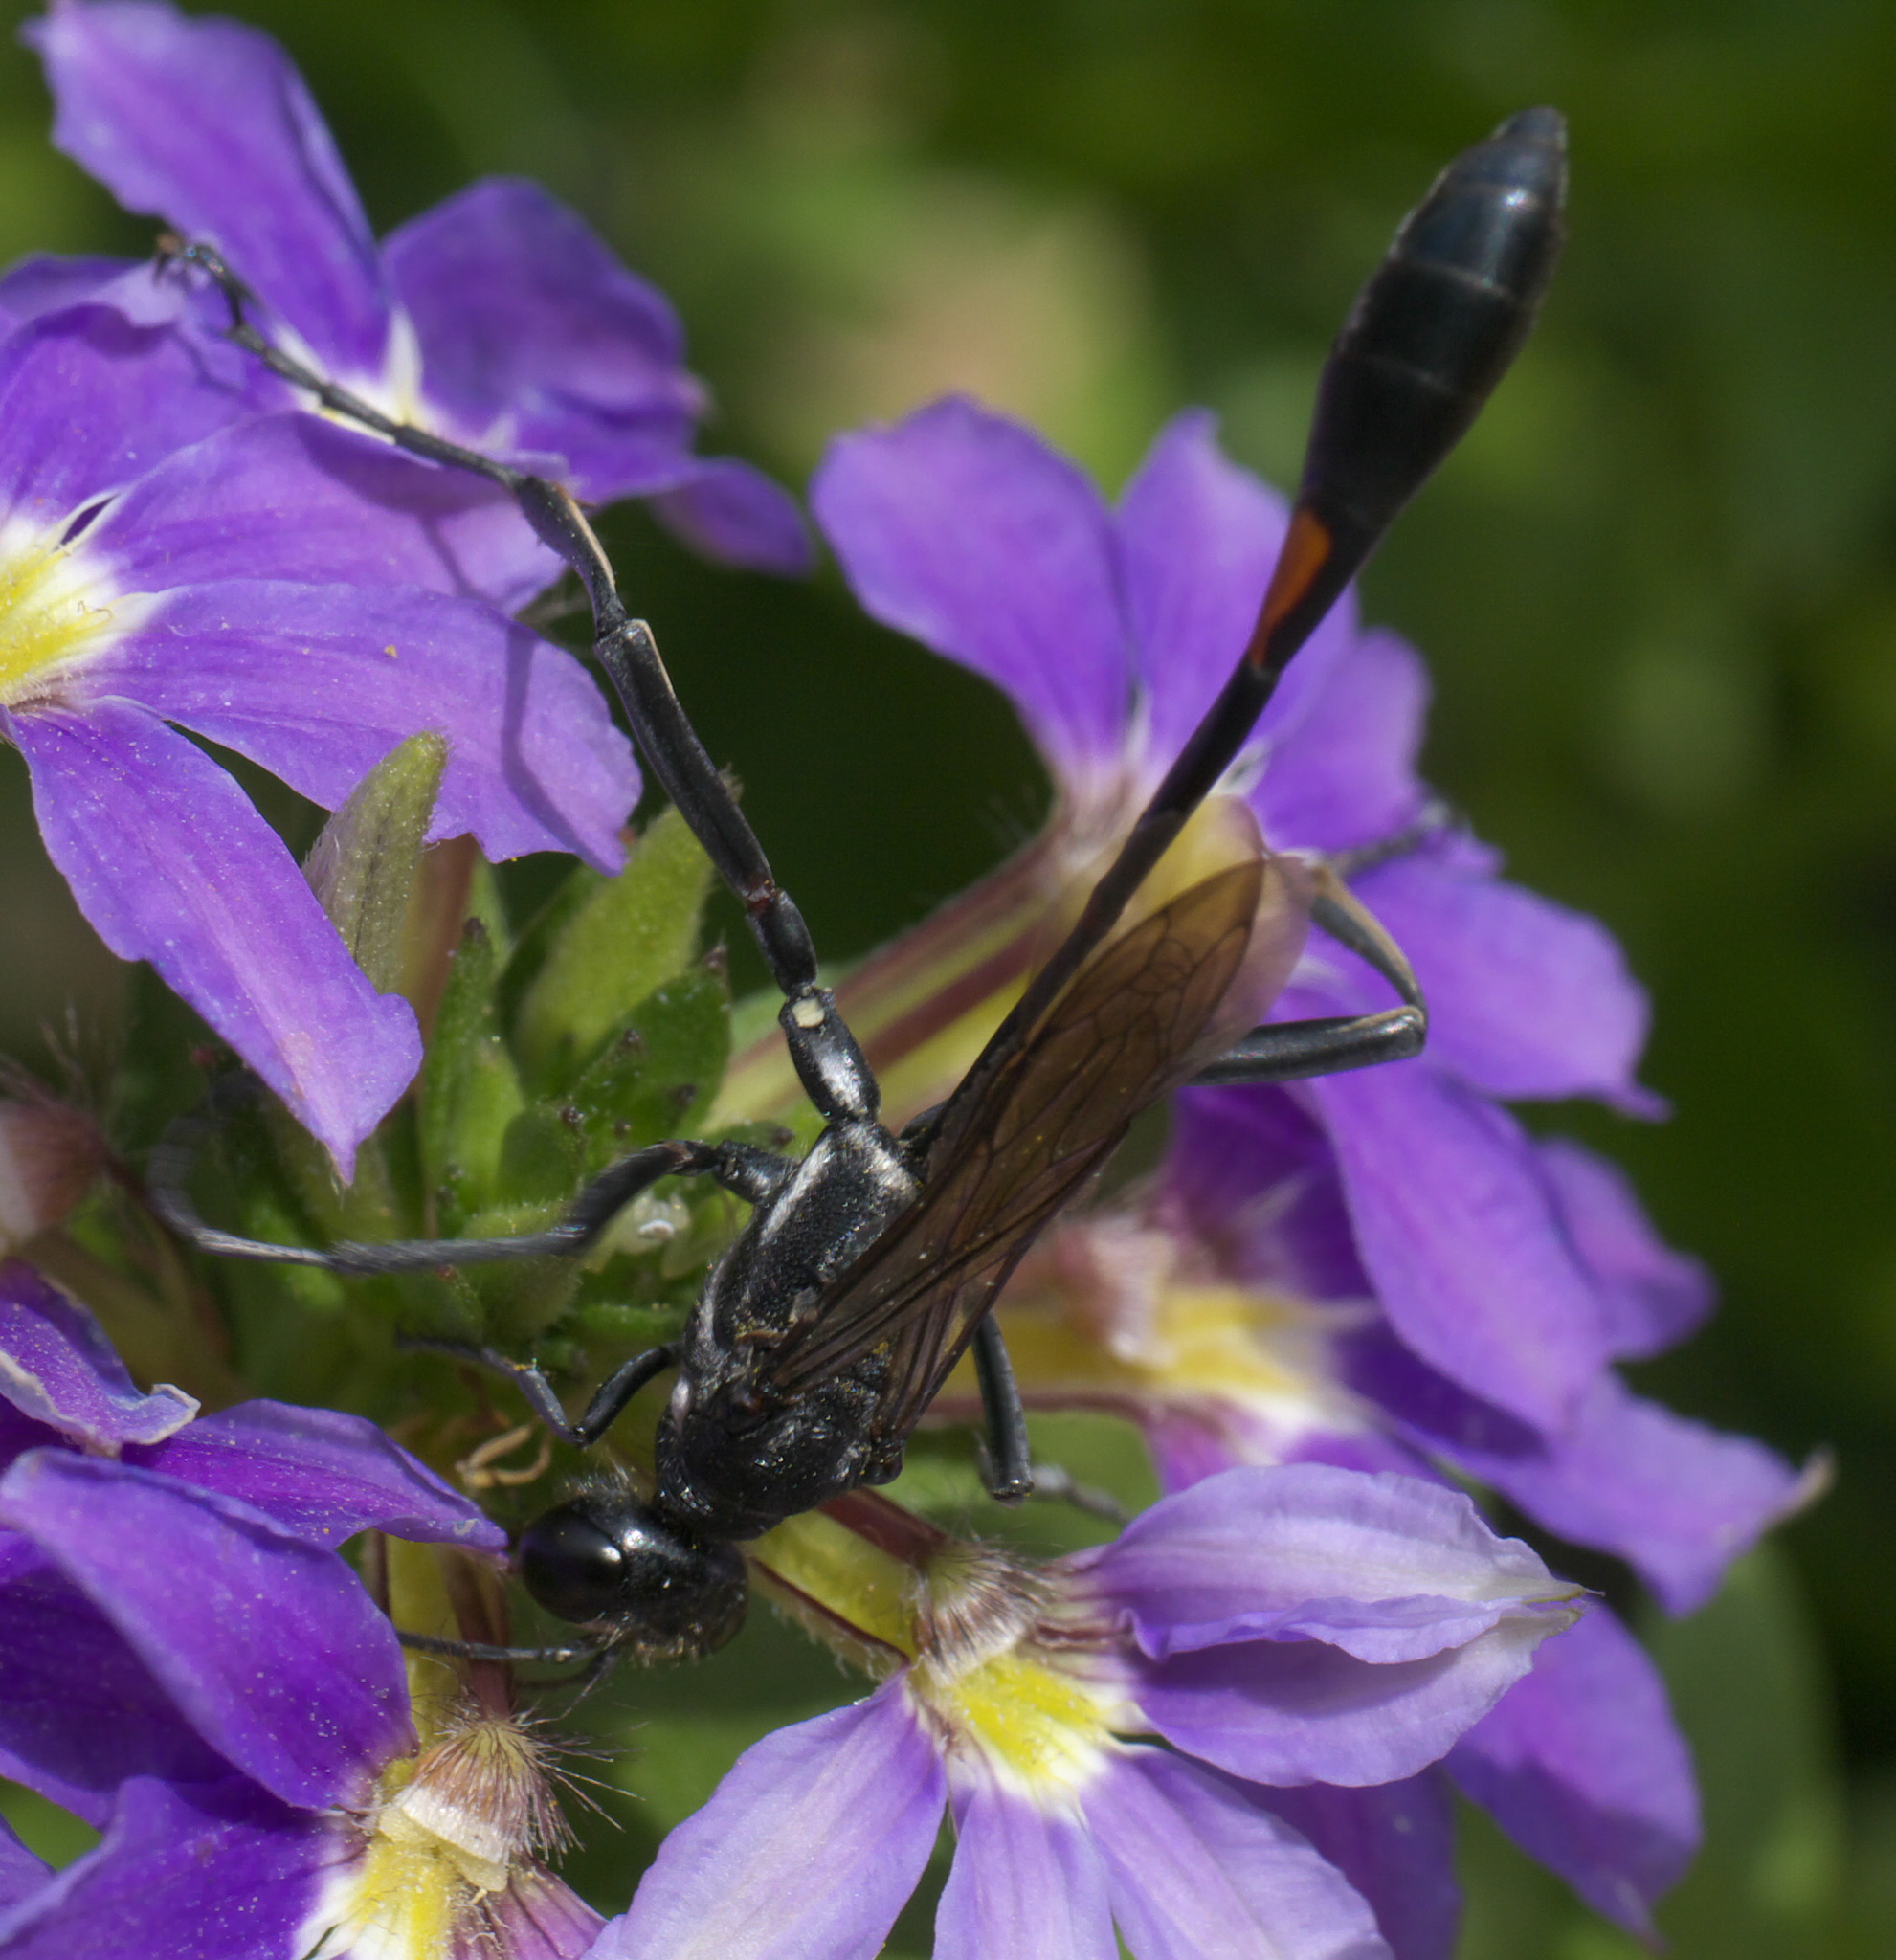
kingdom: Animalia
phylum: Arthropoda
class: Insecta
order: Hymenoptera
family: Sphecidae
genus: Ammophila
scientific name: Ammophila procera
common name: Common thread-waisted wasp
